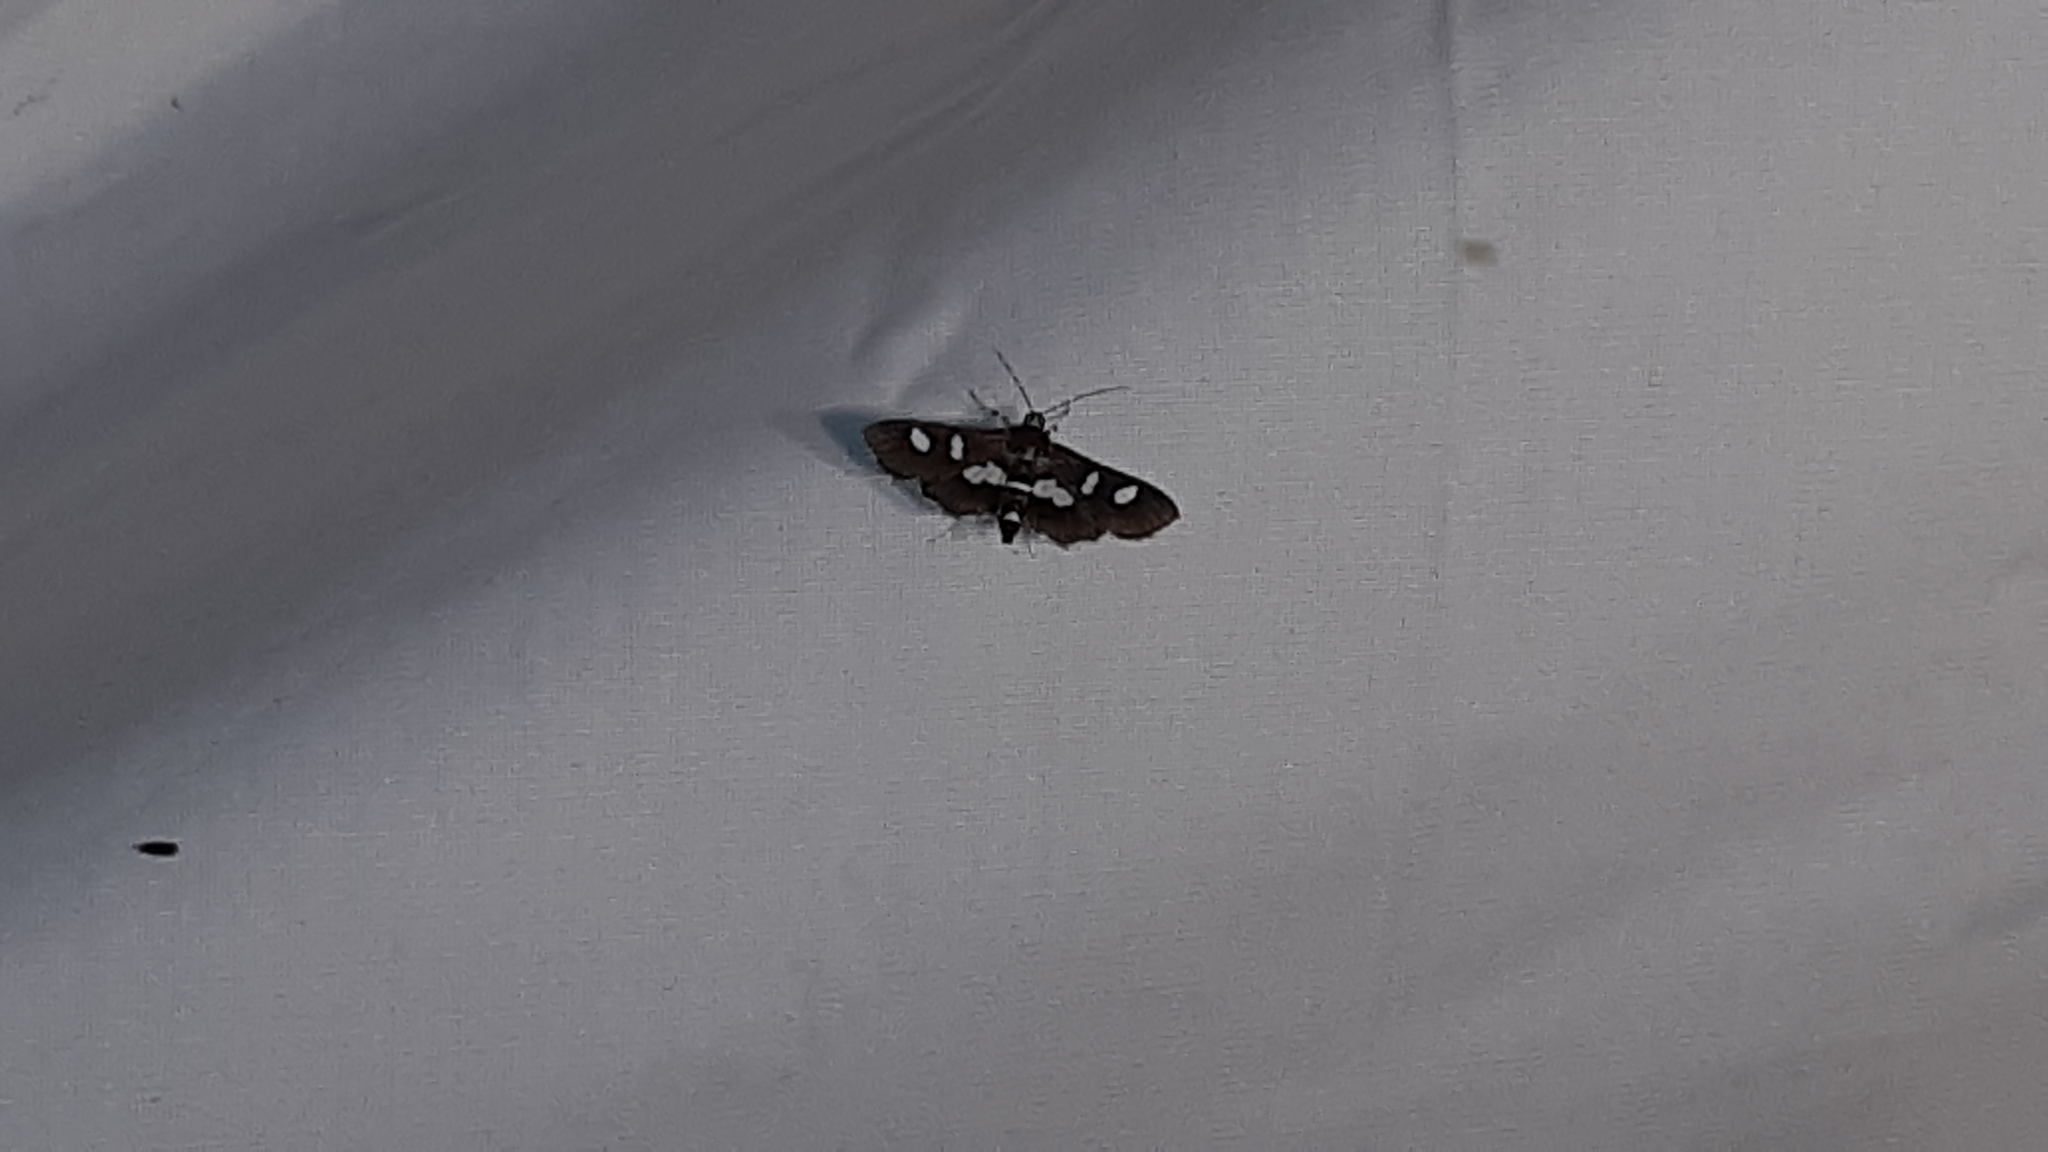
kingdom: Animalia
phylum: Arthropoda
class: Insecta
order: Lepidoptera
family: Crambidae
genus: Desmia
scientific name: Desmia
